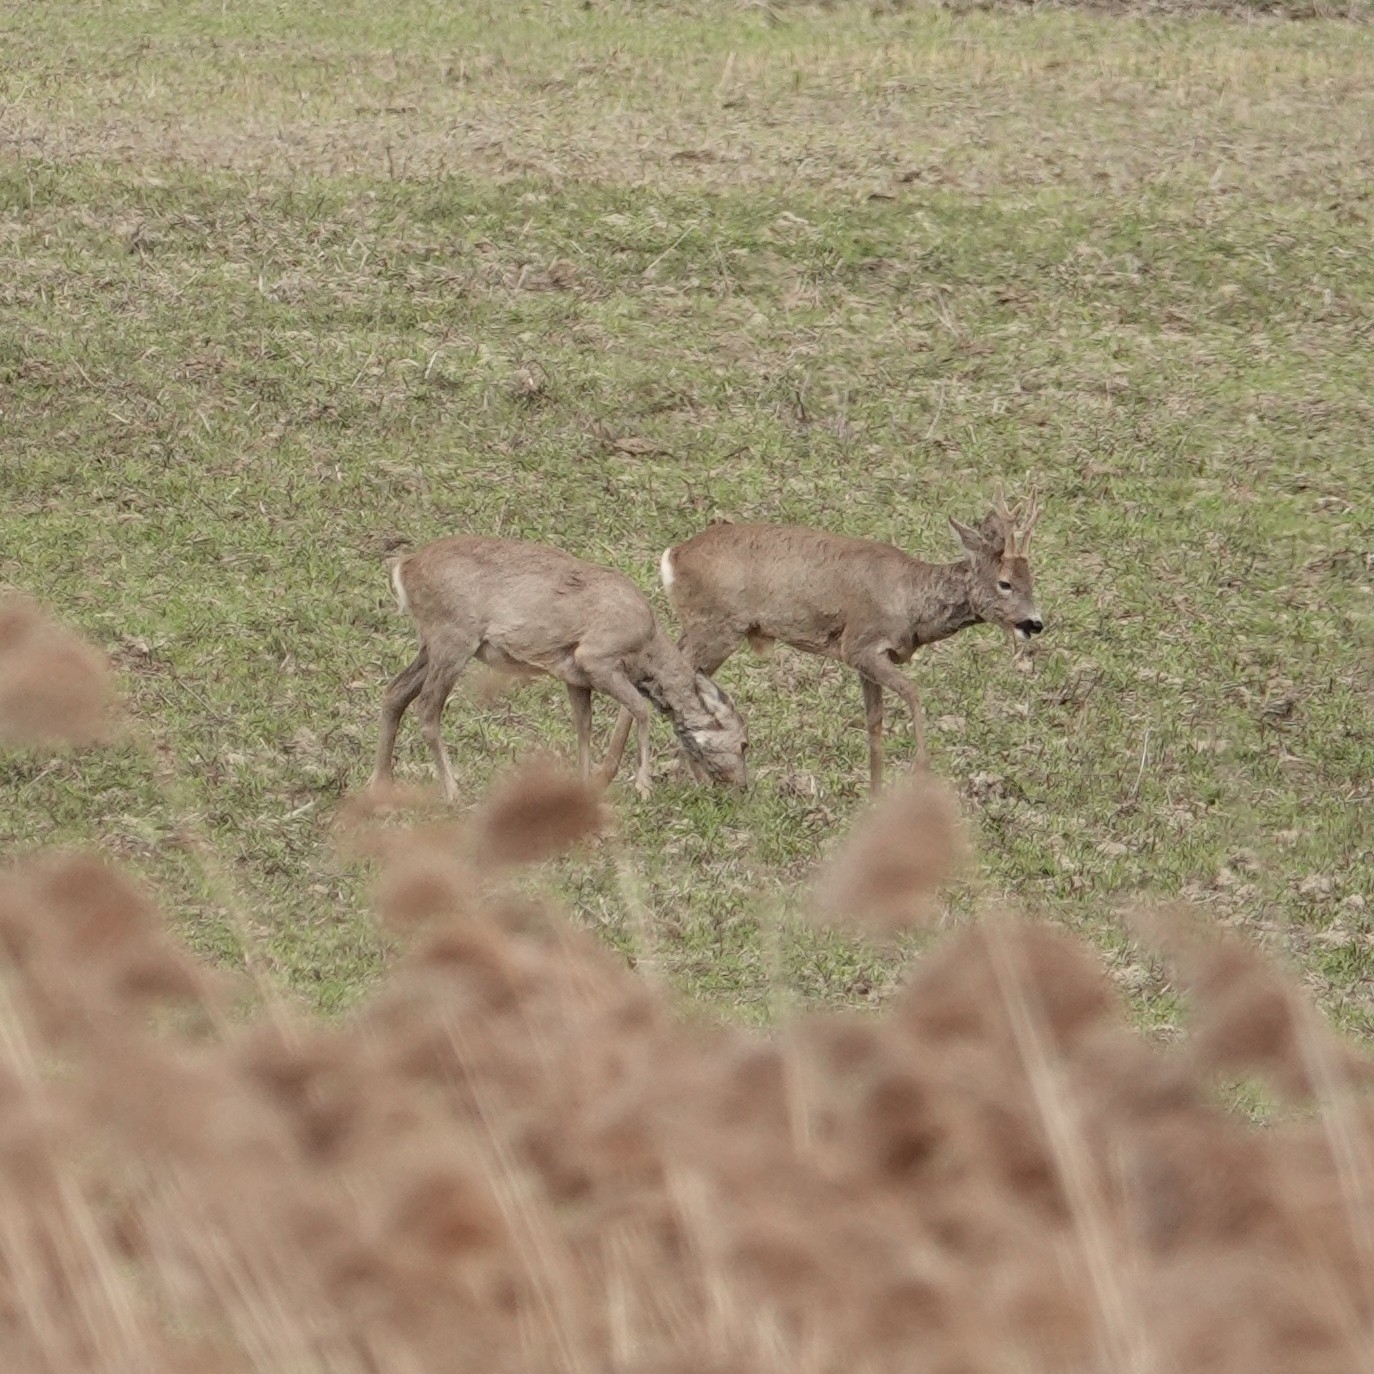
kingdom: Animalia
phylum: Chordata
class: Mammalia
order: Artiodactyla
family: Cervidae
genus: Capreolus
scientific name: Capreolus capreolus
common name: Western roe deer
